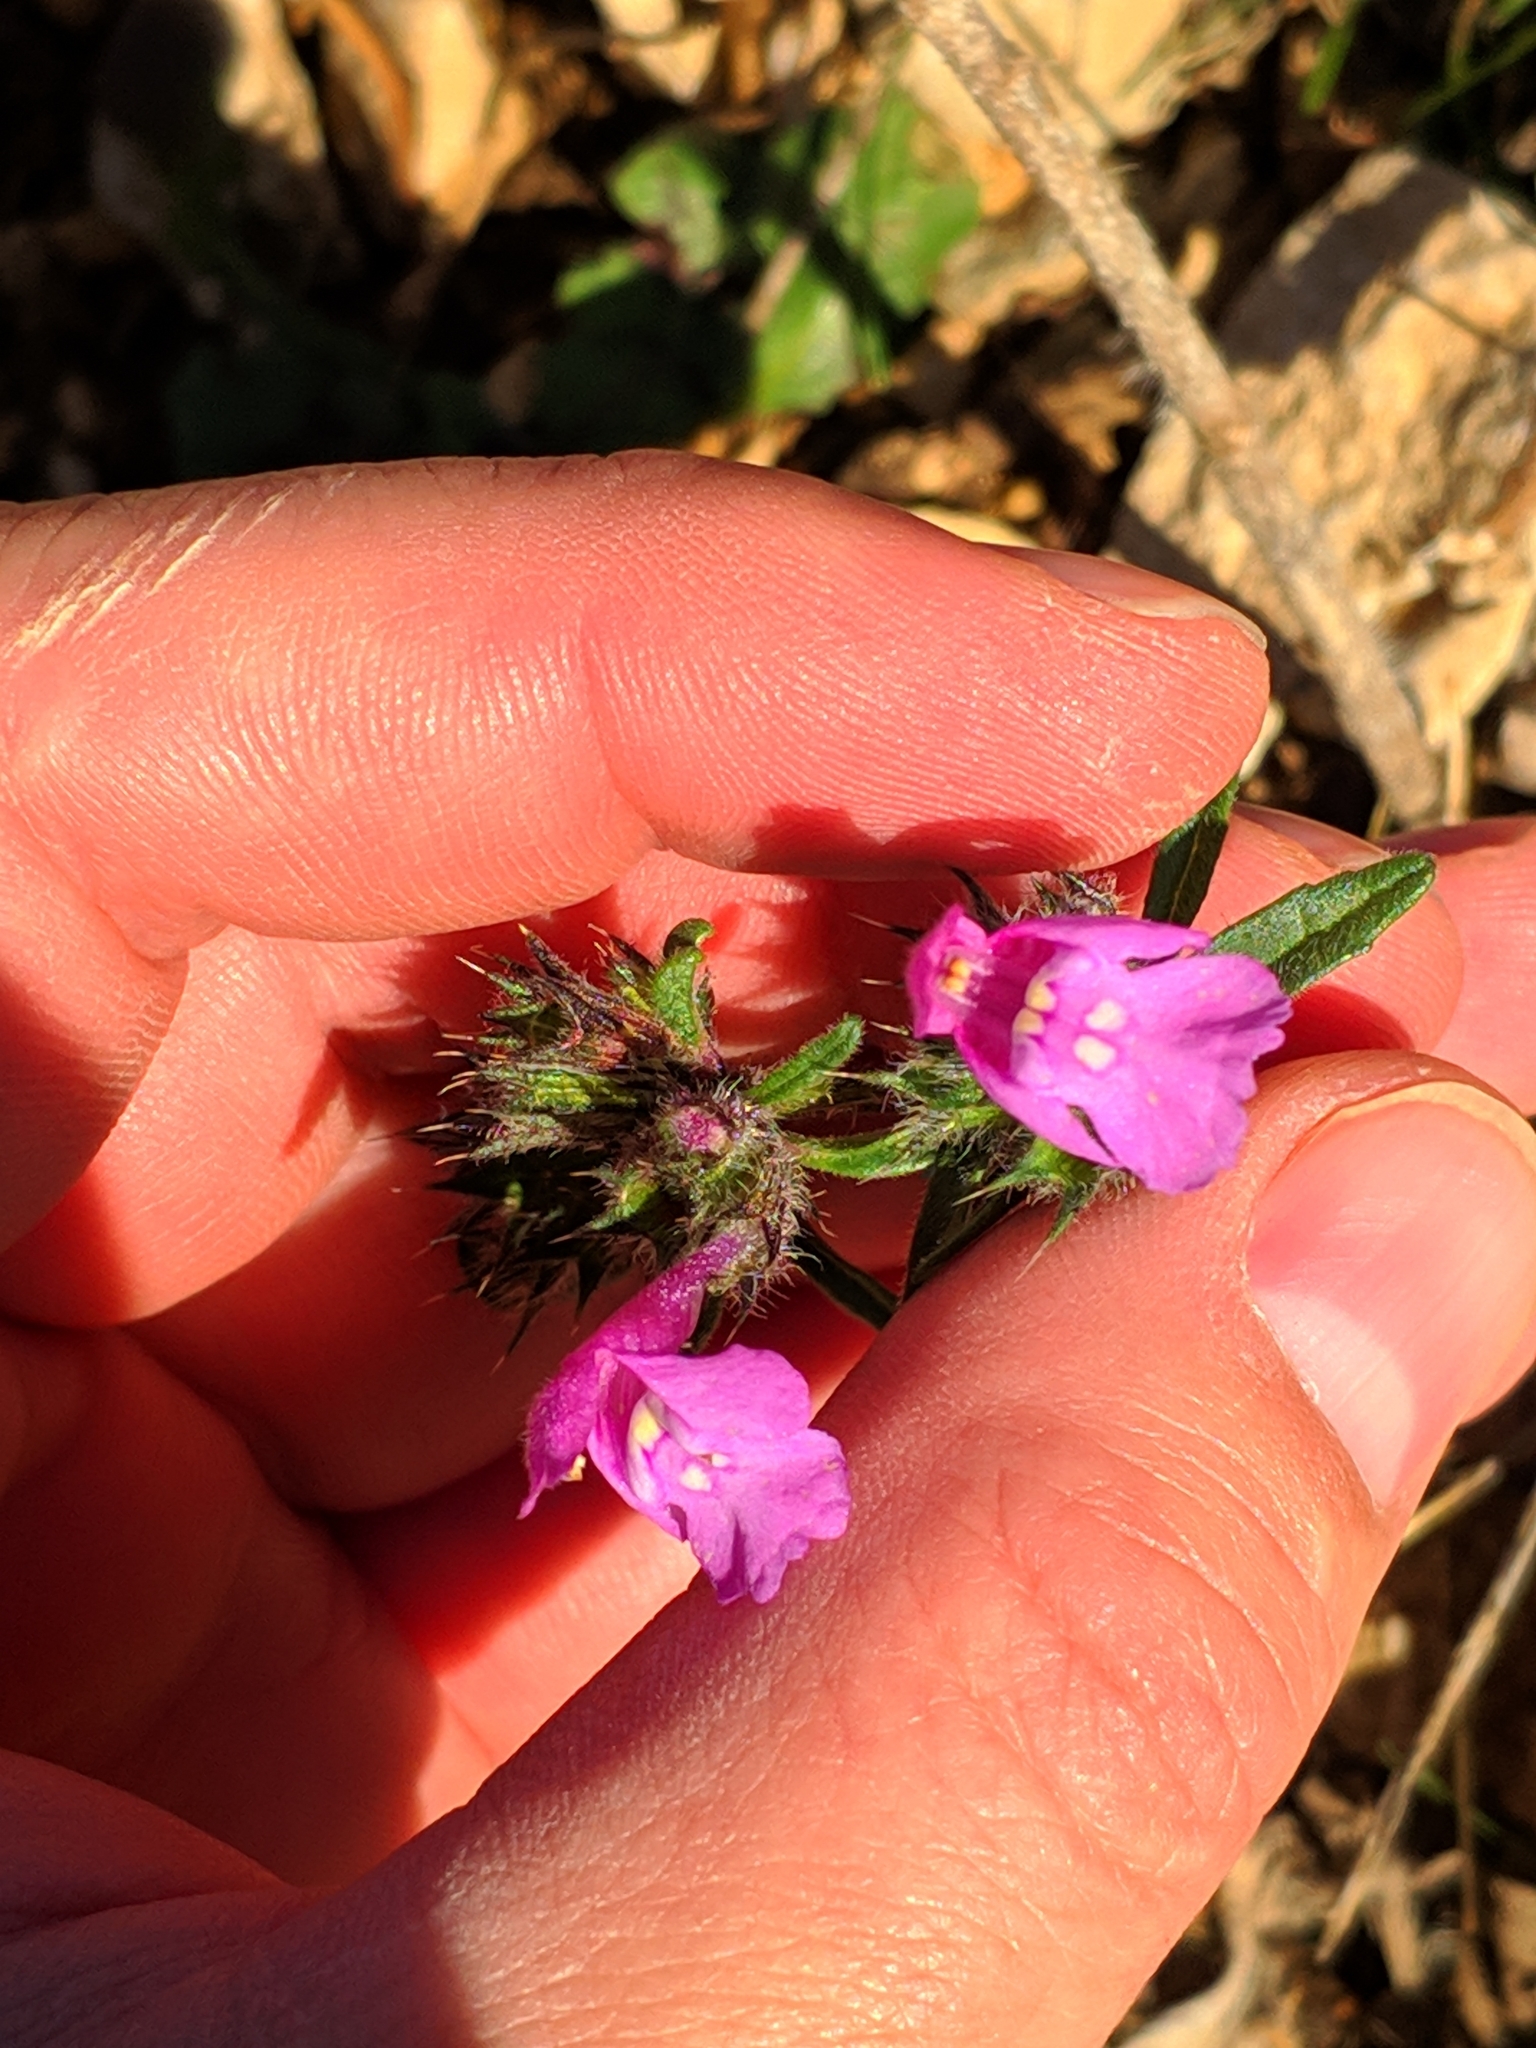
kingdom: Plantae
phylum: Tracheophyta
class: Magnoliopsida
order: Lamiales
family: Lamiaceae
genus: Galeopsis
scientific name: Galeopsis angustifolia
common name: Red hemp-nettle
